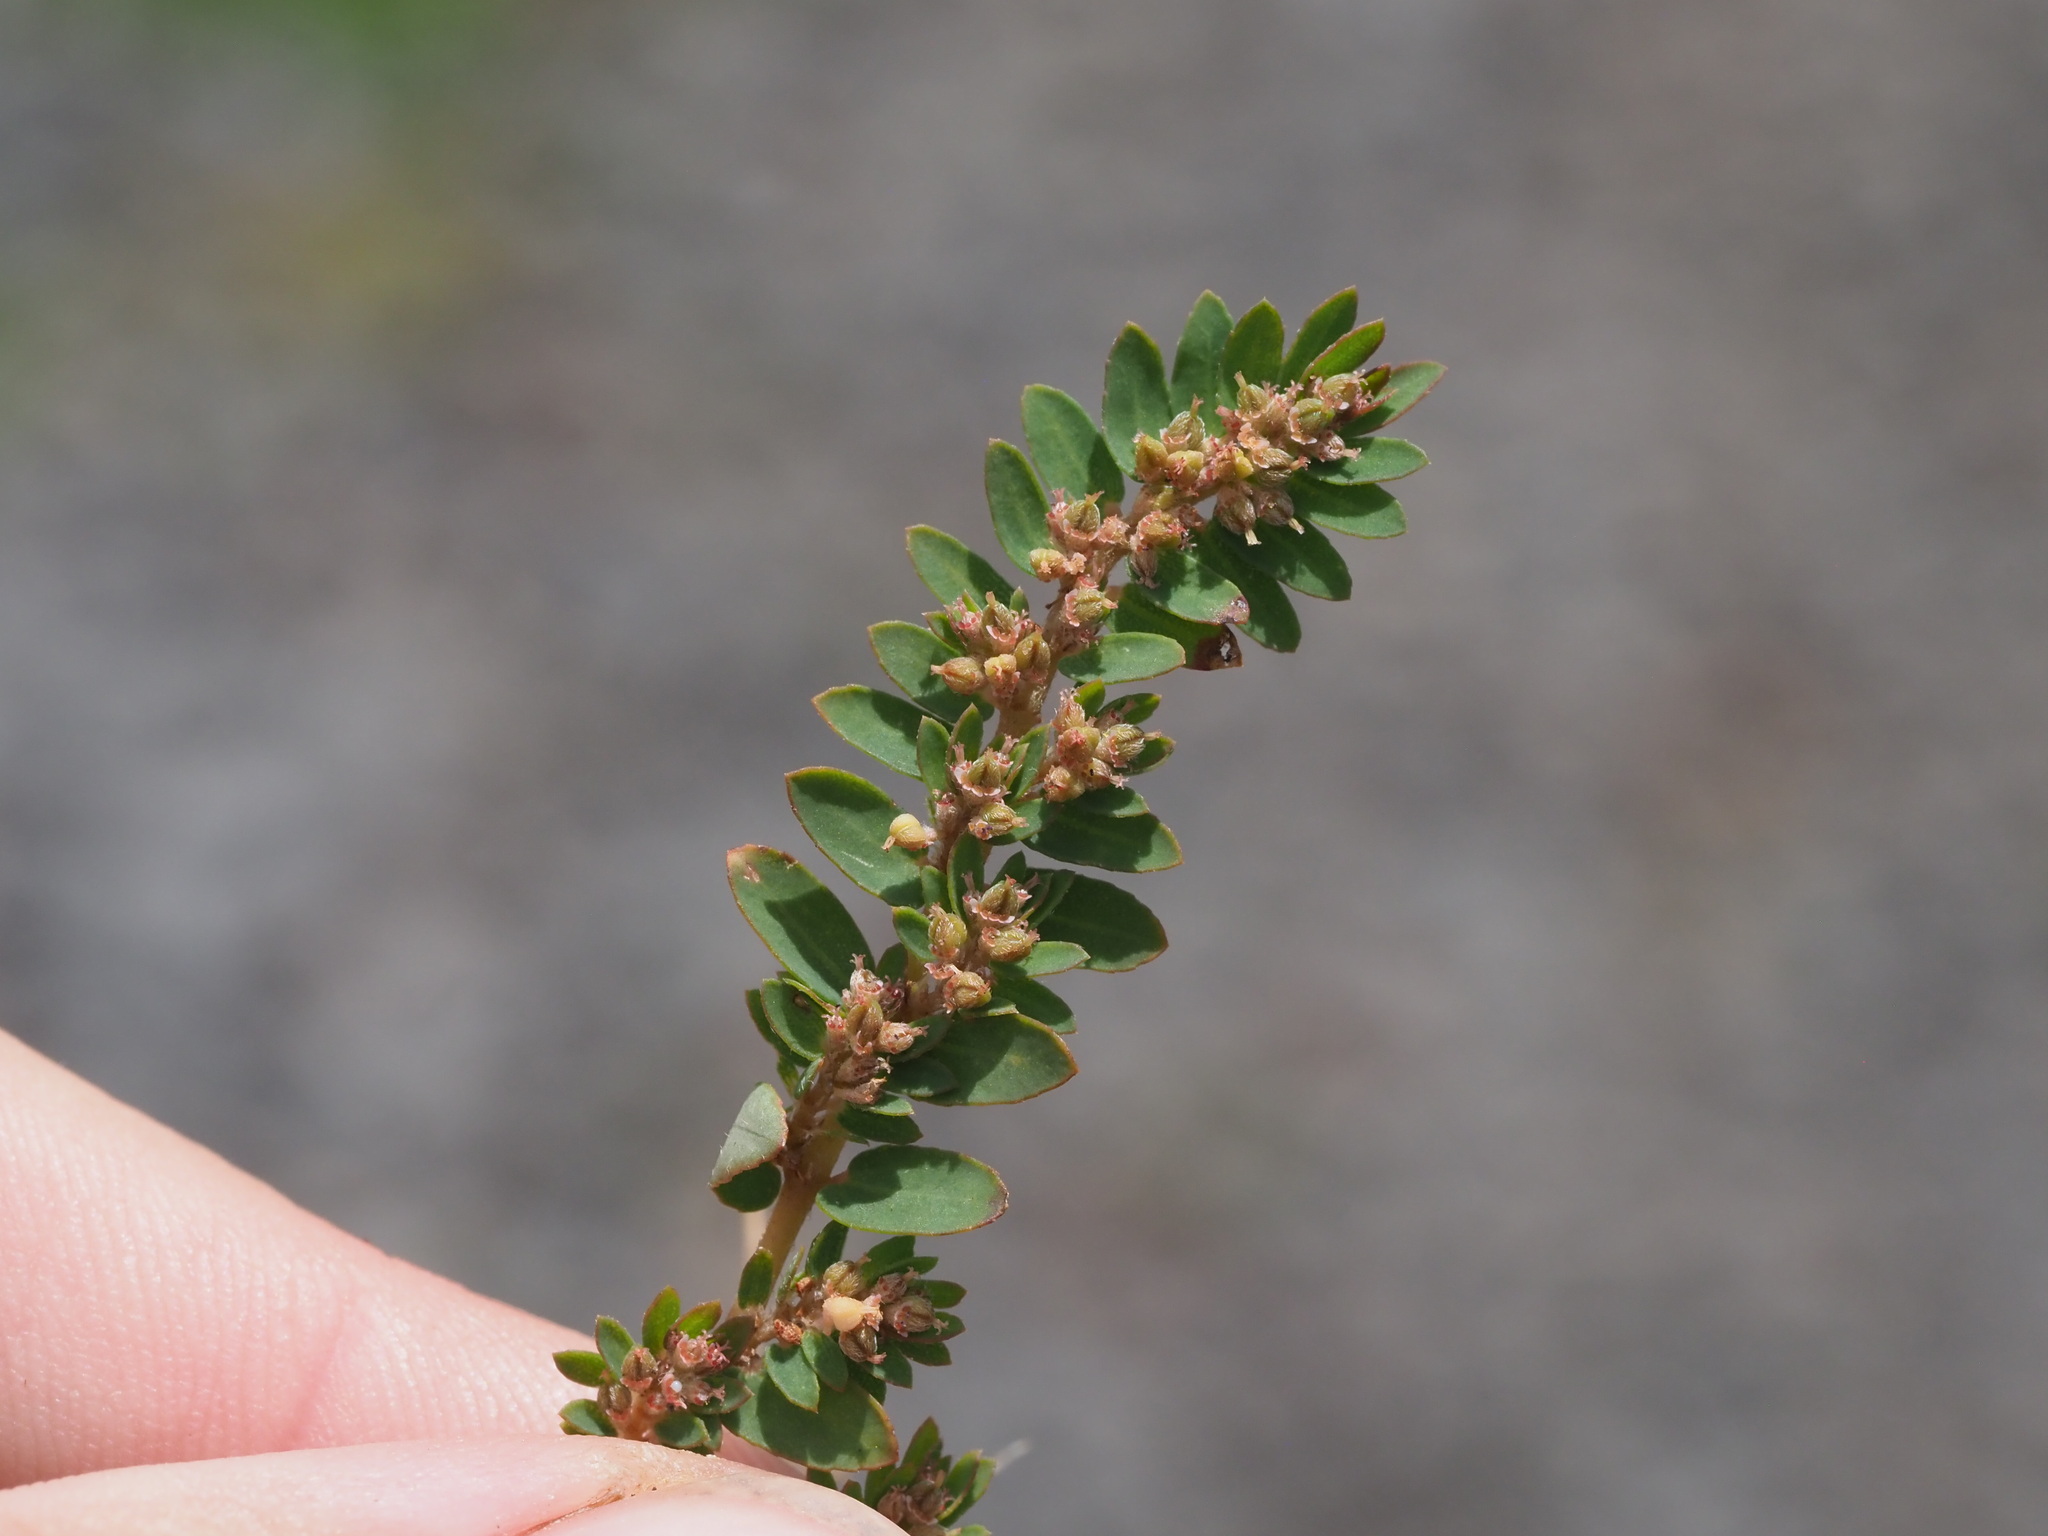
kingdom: Plantae
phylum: Tracheophyta
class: Magnoliopsida
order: Malpighiales
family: Euphorbiaceae
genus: Euphorbia
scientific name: Euphorbia thymifolia
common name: Gulf sandmat
